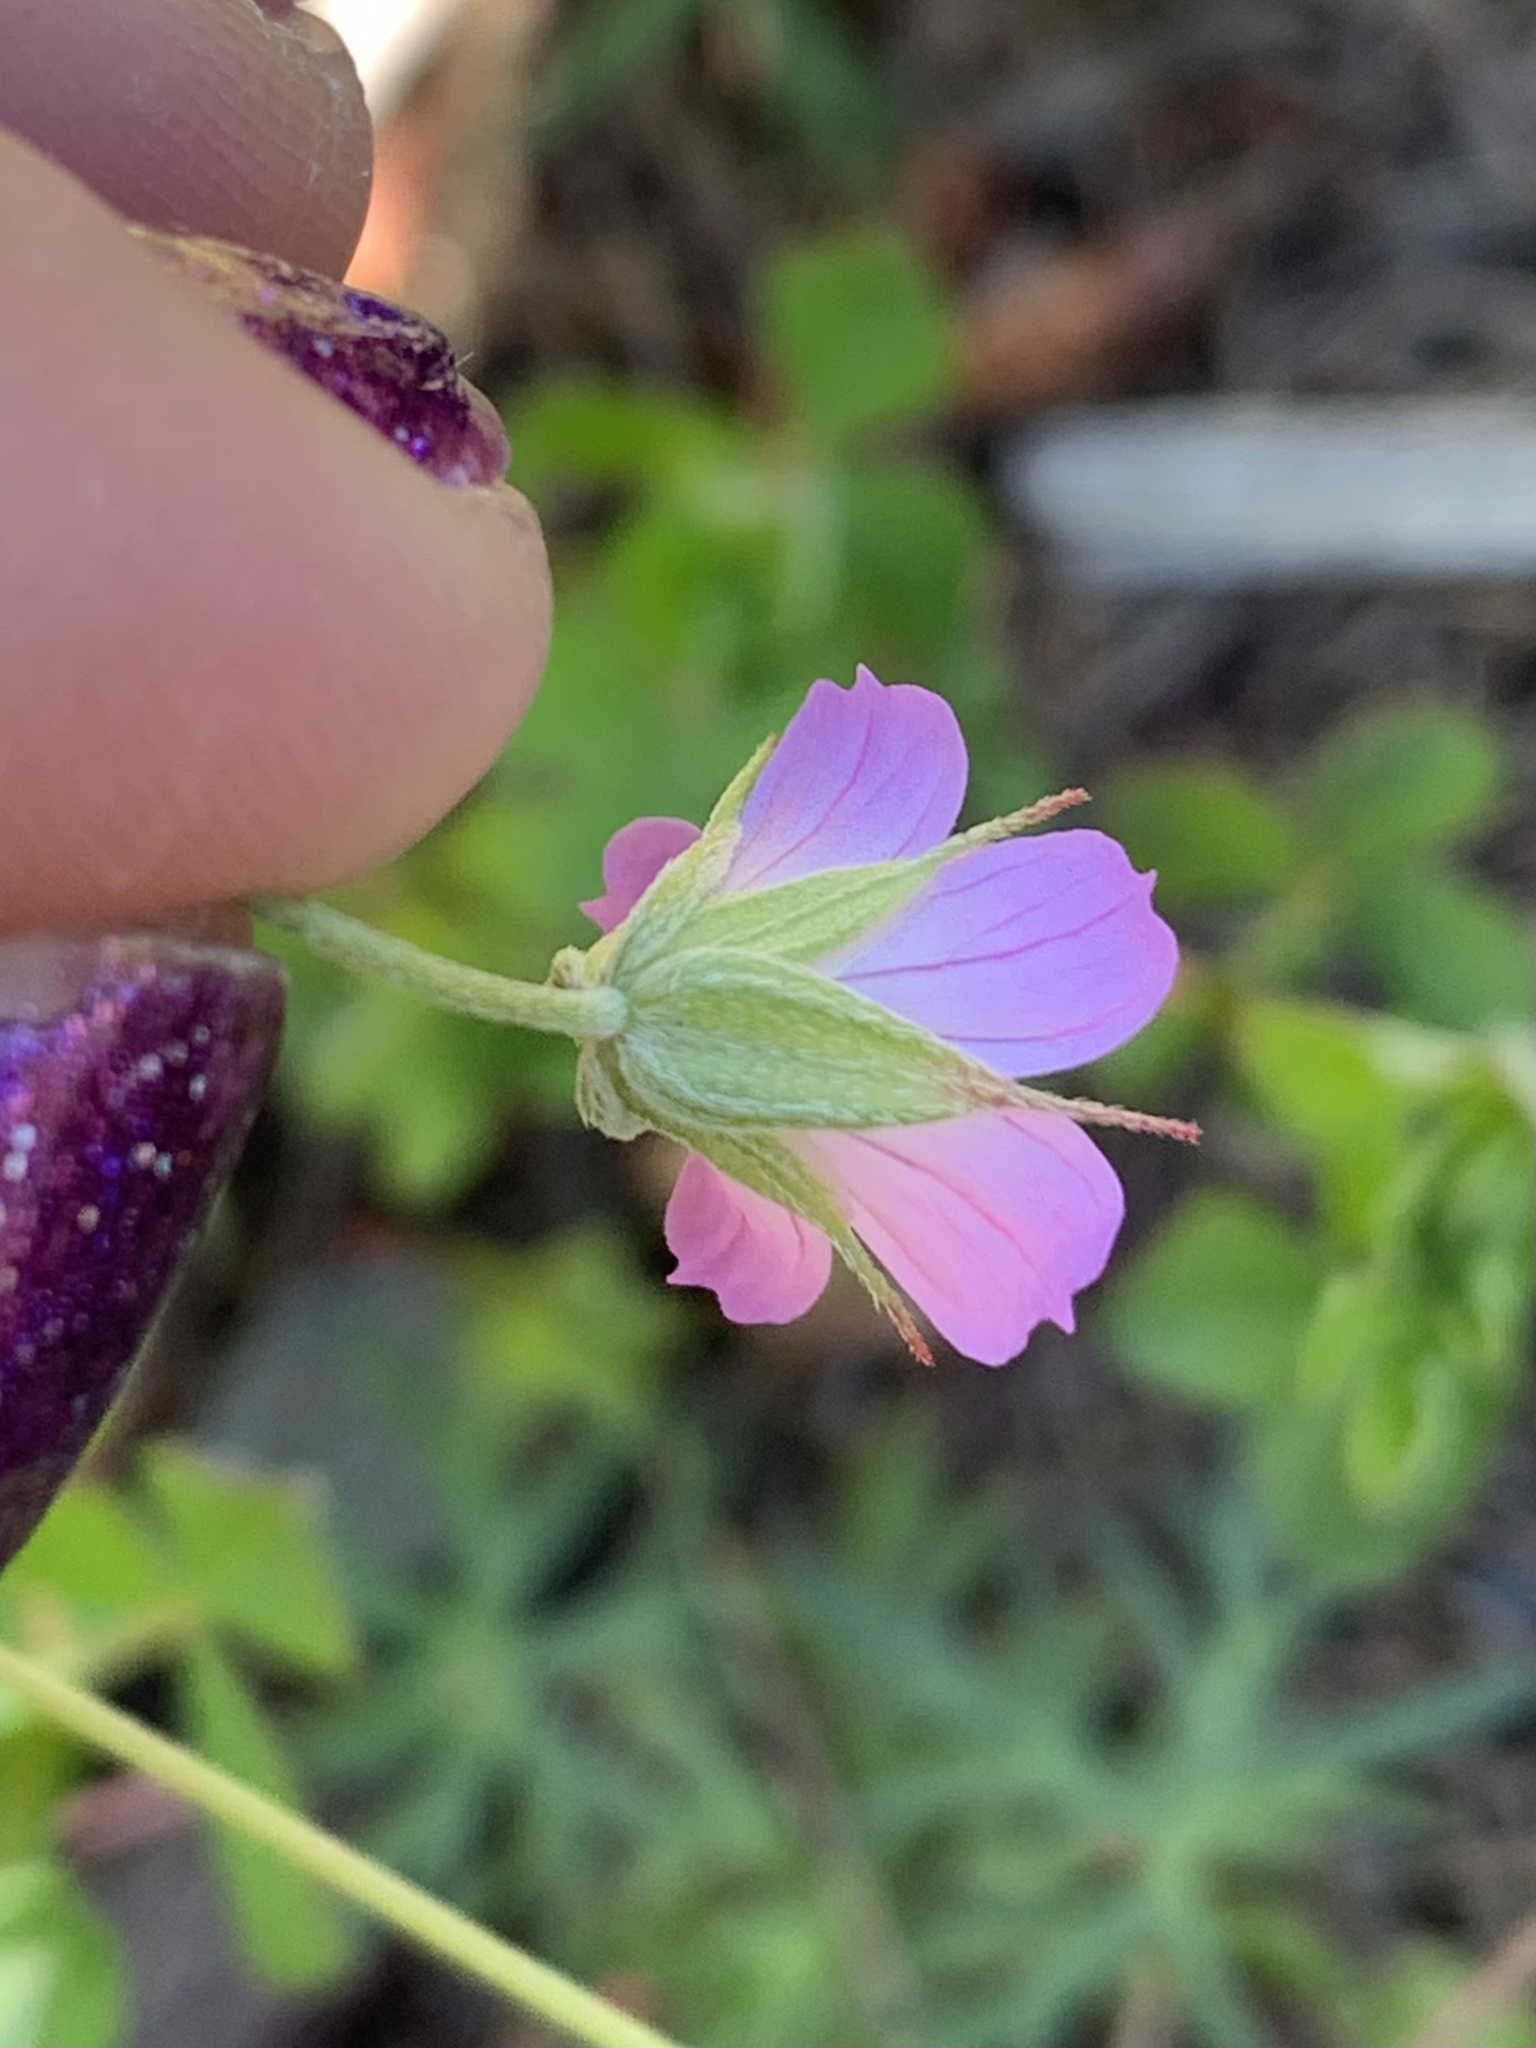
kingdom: Plantae
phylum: Tracheophyta
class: Magnoliopsida
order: Geraniales
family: Geraniaceae
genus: Geranium
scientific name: Geranium columbinum
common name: Long-stalked crane's-bill
